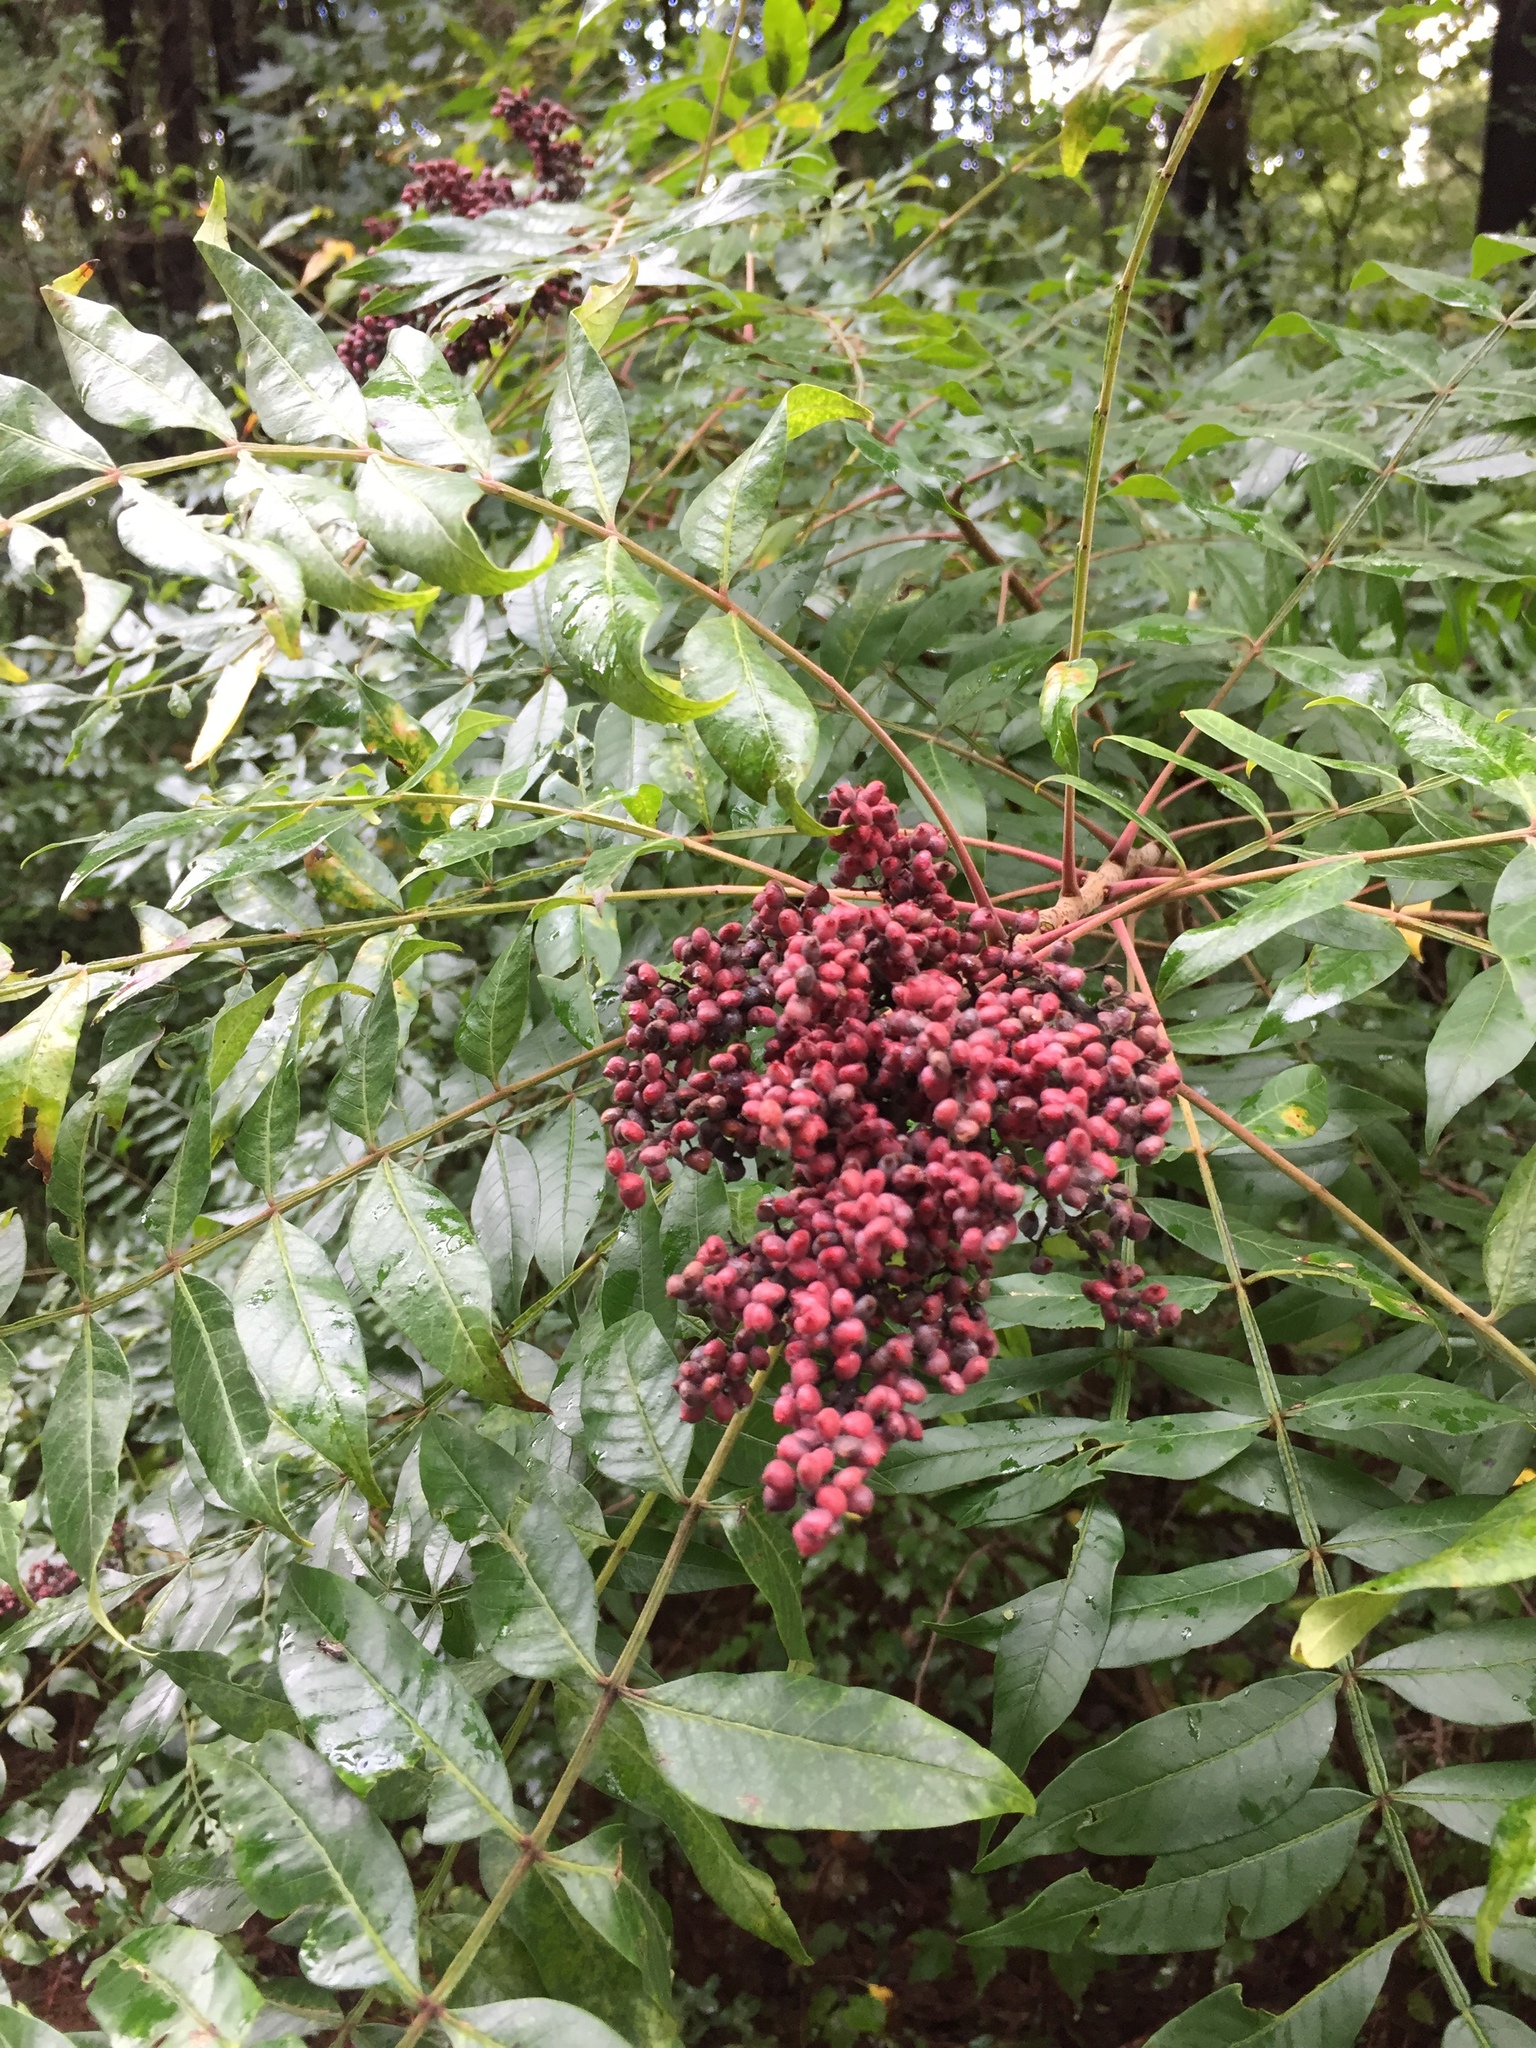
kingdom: Plantae
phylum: Tracheophyta
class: Magnoliopsida
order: Sapindales
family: Anacardiaceae
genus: Rhus
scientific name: Rhus copallina
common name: Shining sumac
